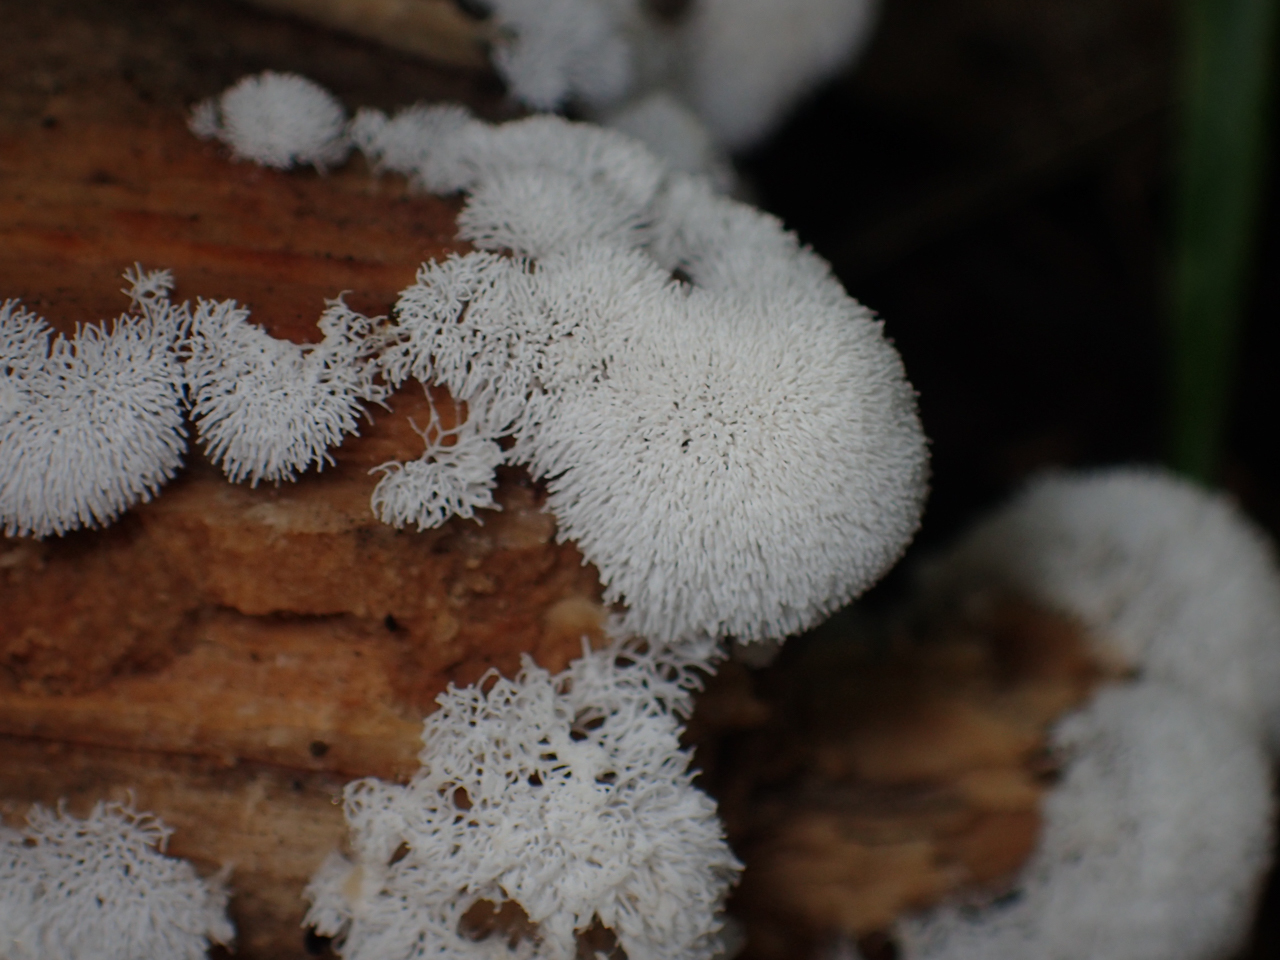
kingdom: Protozoa
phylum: Mycetozoa
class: Protosteliomycetes
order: Ceratiomyxales
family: Ceratiomyxaceae
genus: Ceratiomyxa
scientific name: Ceratiomyxa fruticulosa
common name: Honeycomb coral slime mold
